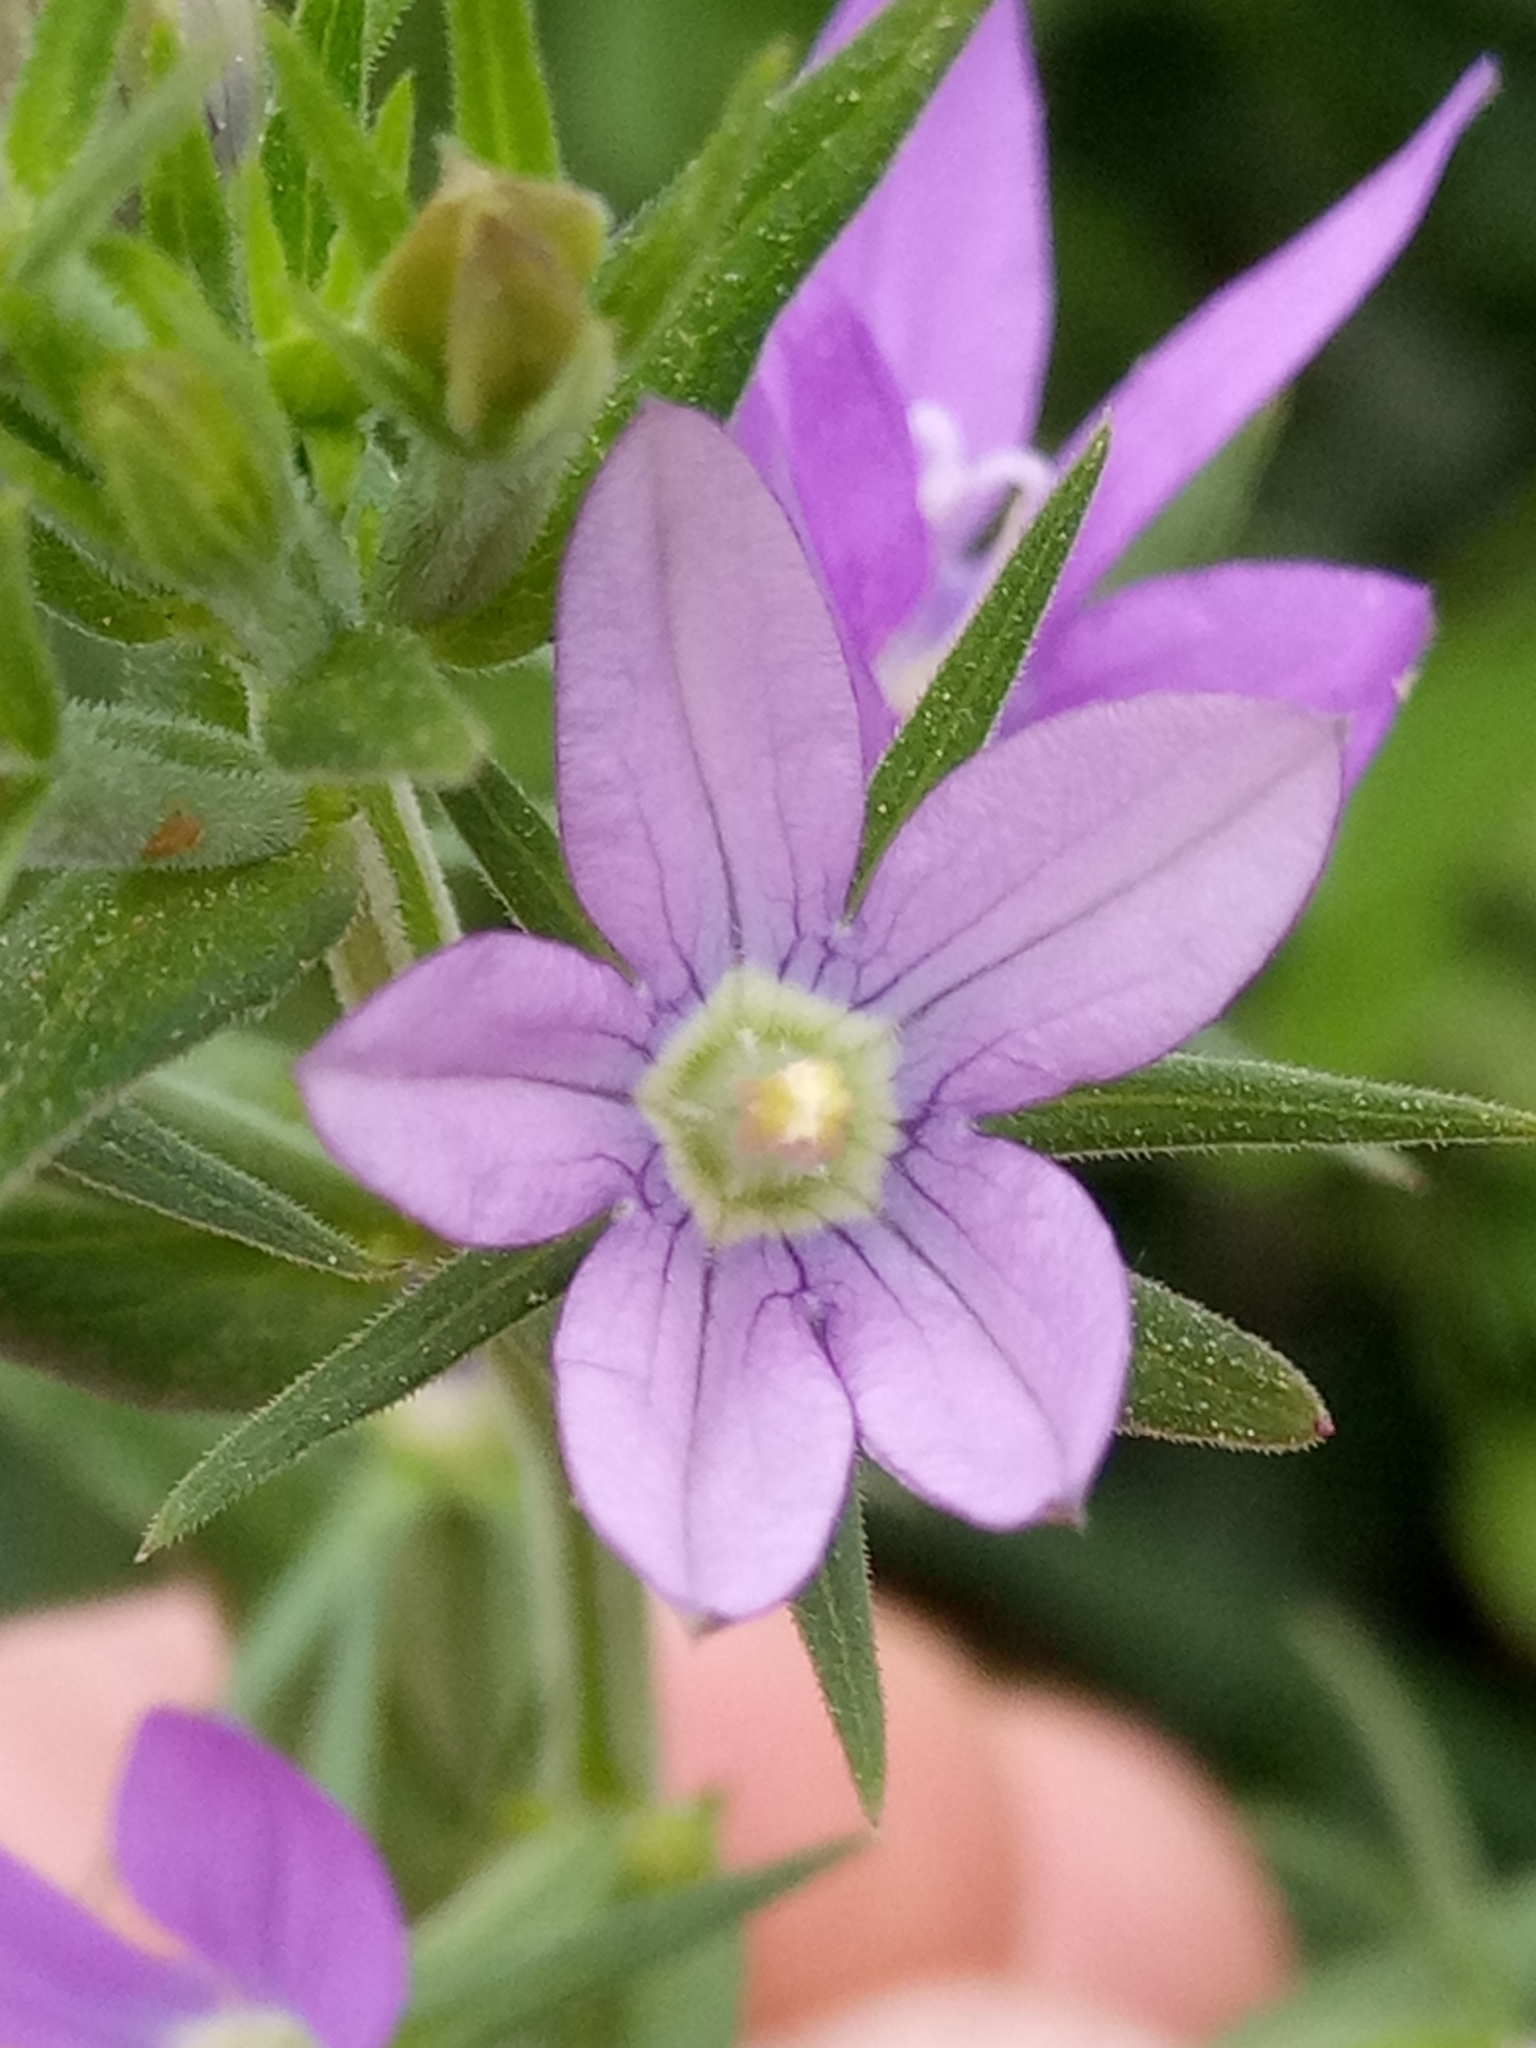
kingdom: Plantae
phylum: Tracheophyta
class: Magnoliopsida
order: Asterales
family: Campanulaceae
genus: Legousia
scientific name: Legousia falcata
